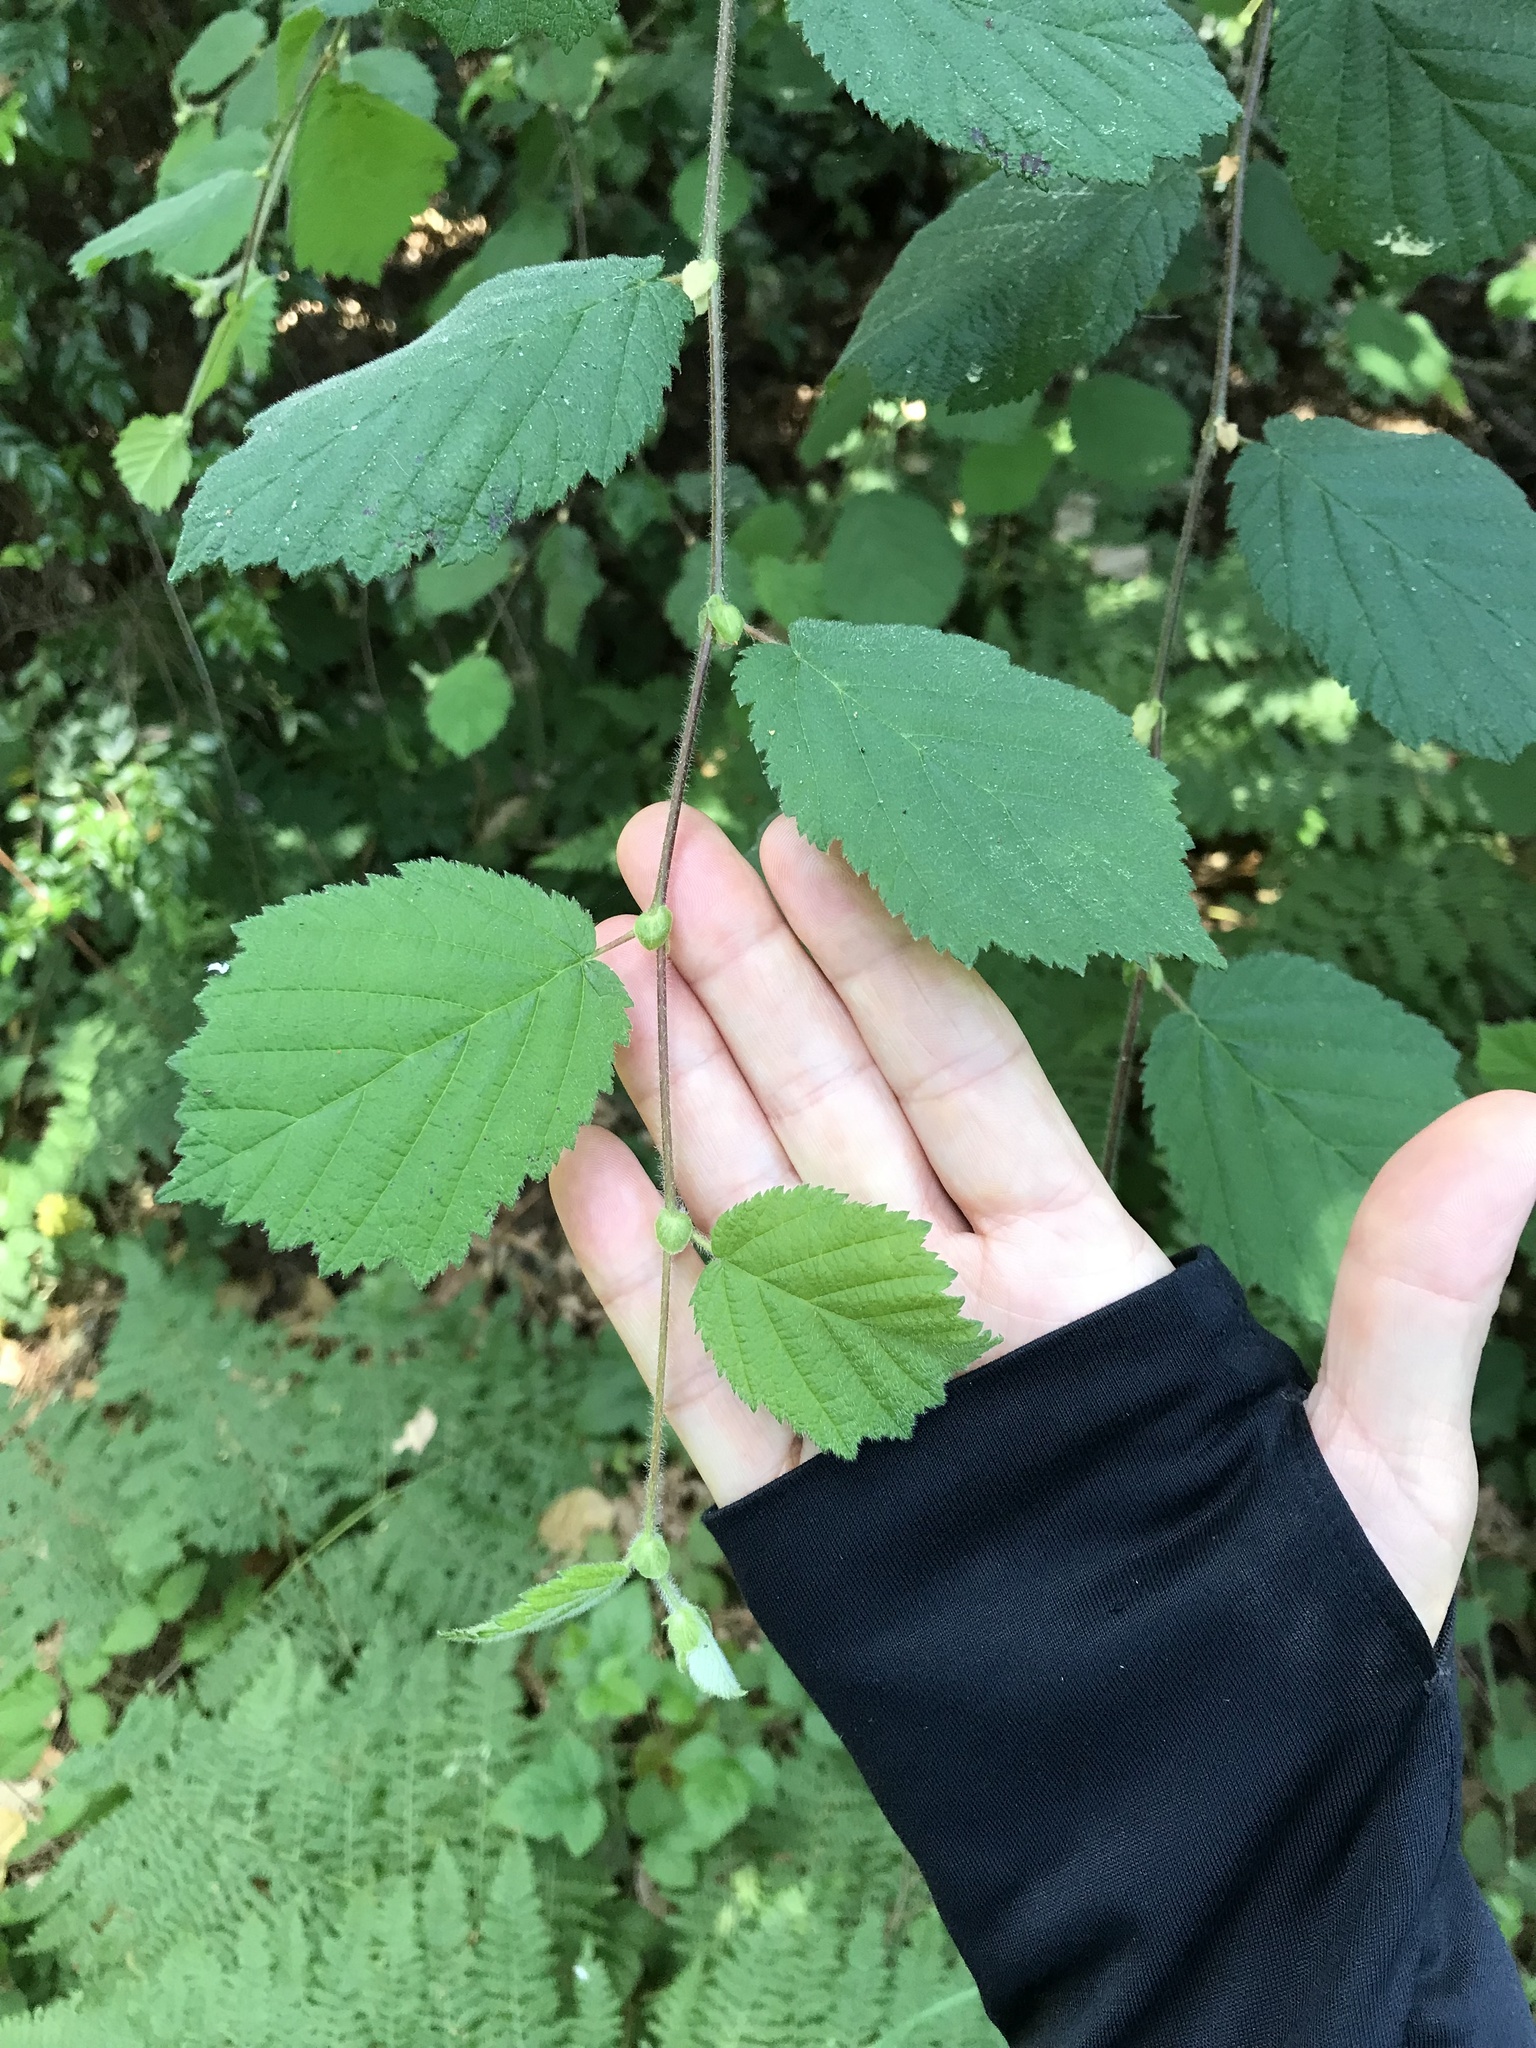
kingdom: Plantae
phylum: Tracheophyta
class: Magnoliopsida
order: Fagales
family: Betulaceae
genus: Corylus
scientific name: Corylus cornuta
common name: Beaked hazel
